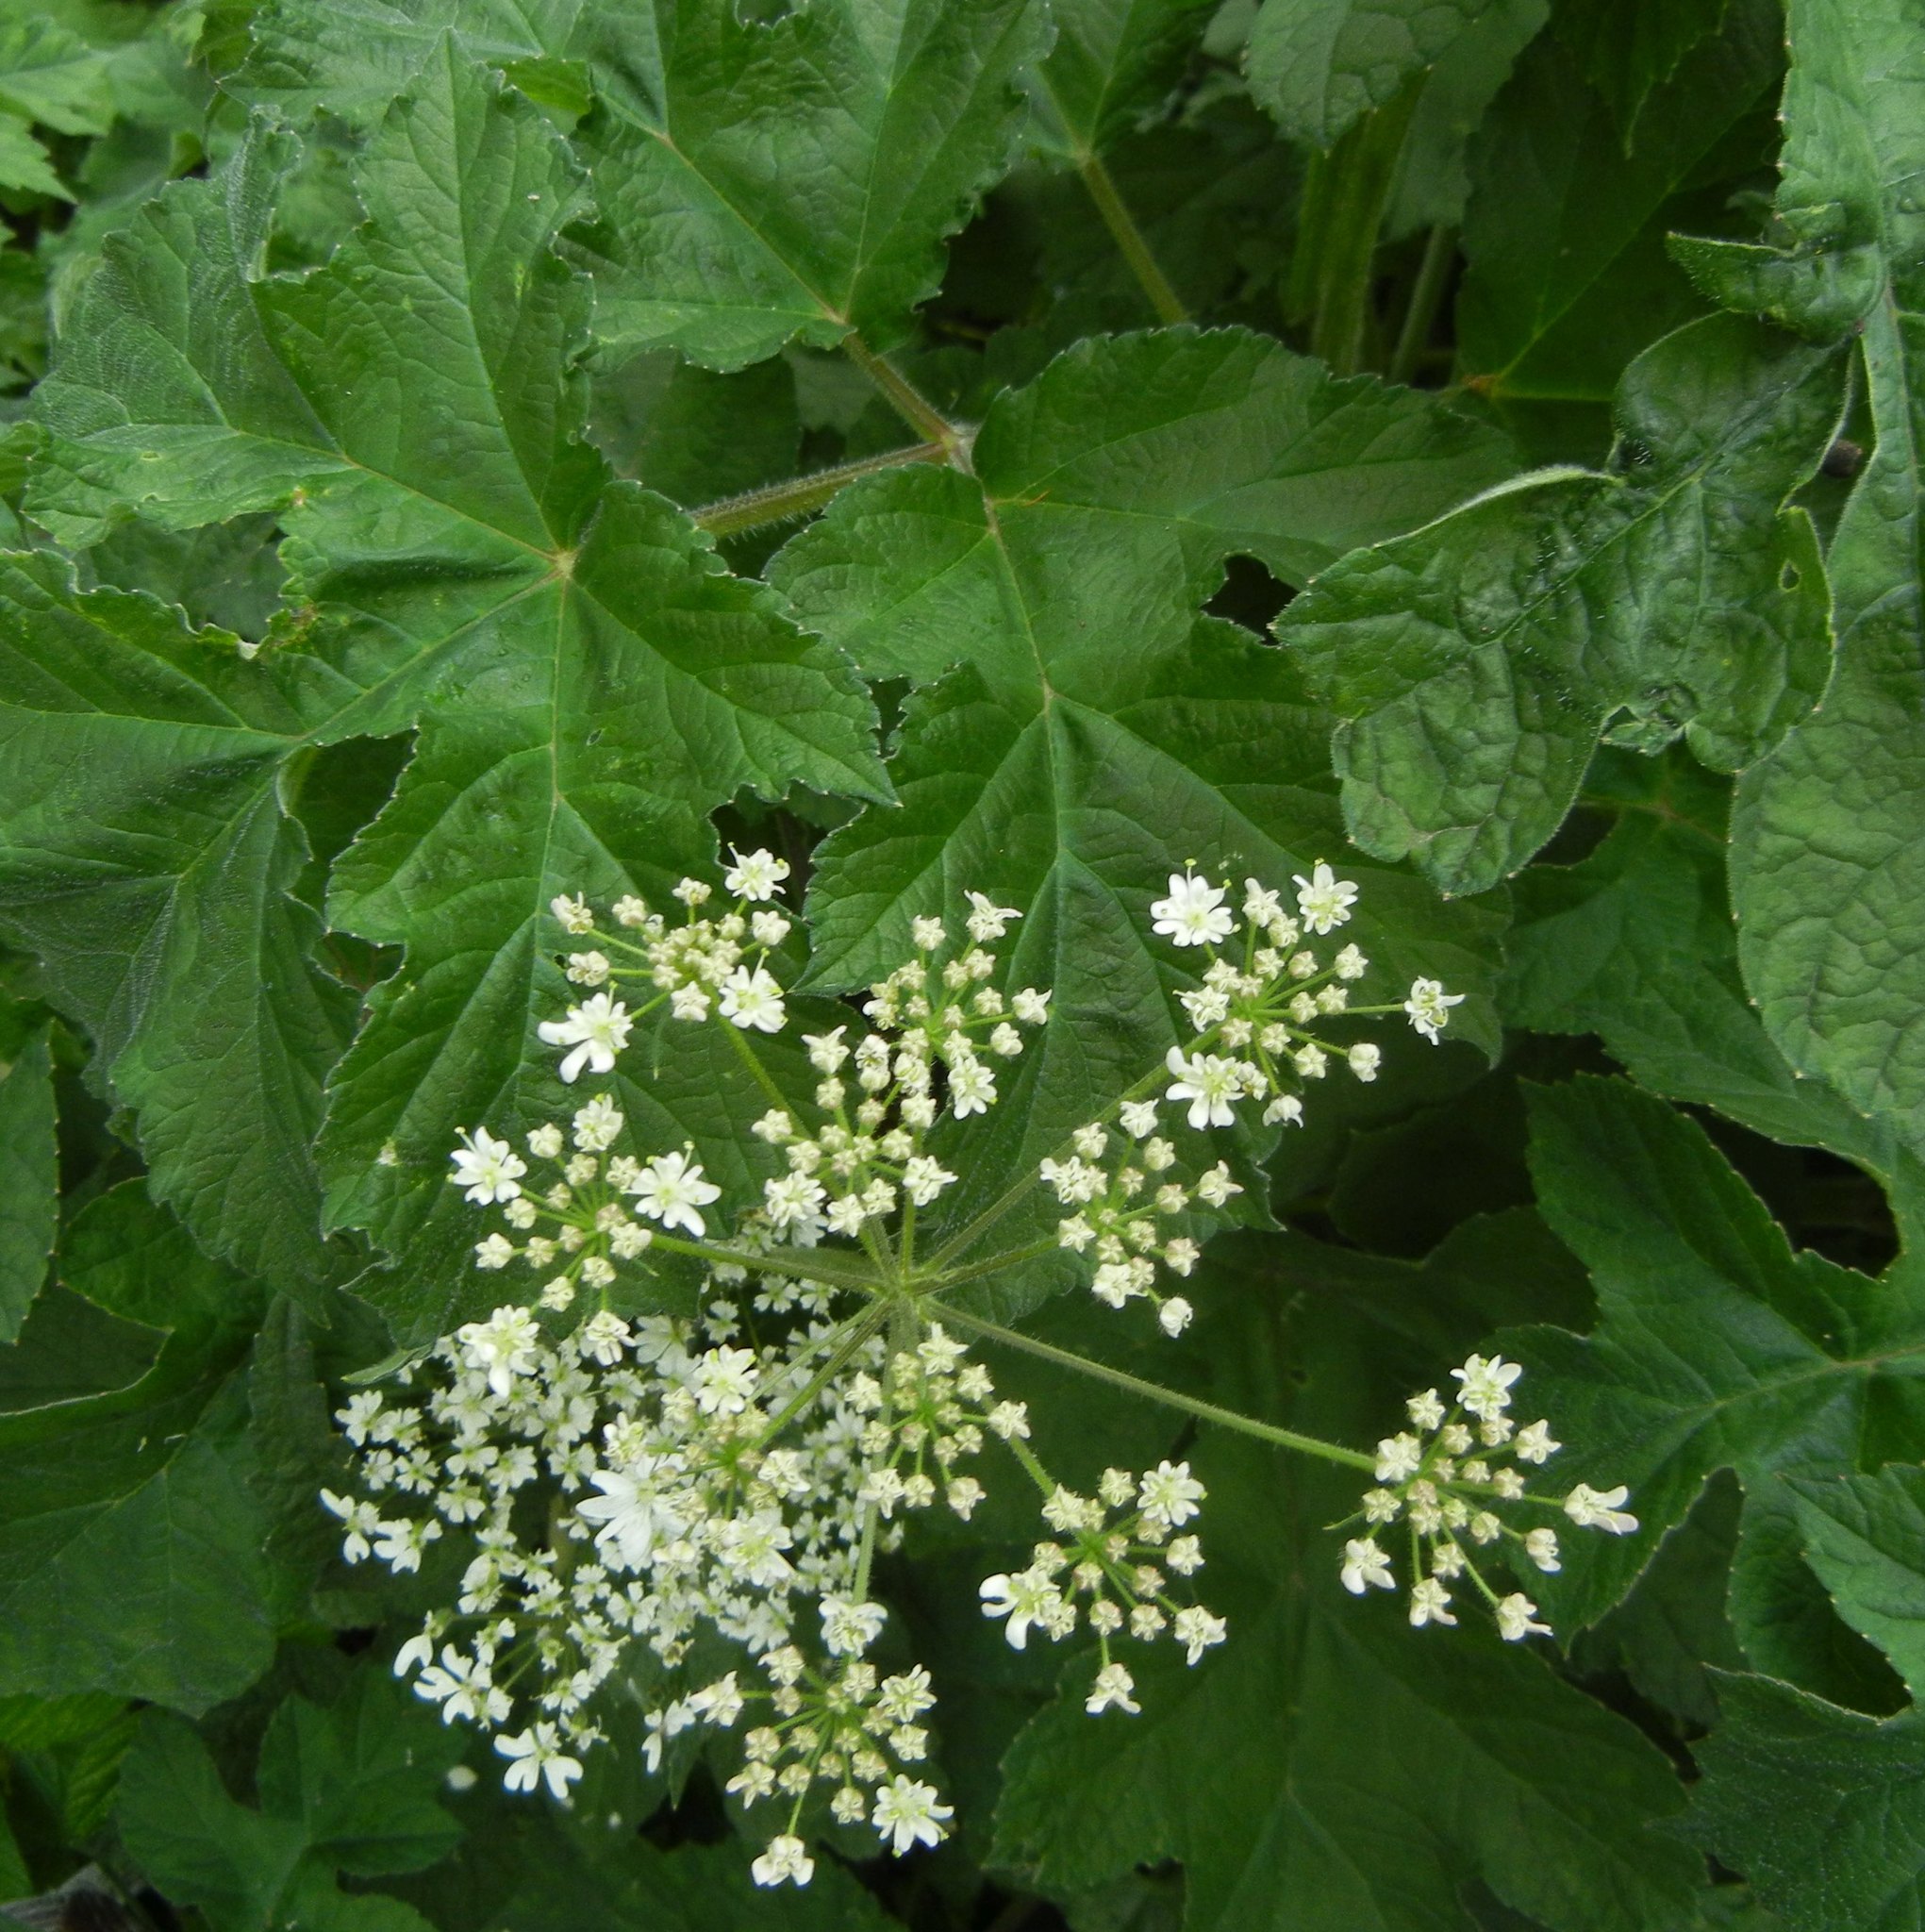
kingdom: Plantae
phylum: Tracheophyta
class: Magnoliopsida
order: Apiales
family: Apiaceae
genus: Heracleum
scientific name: Heracleum sphondylium
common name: Hogweed
